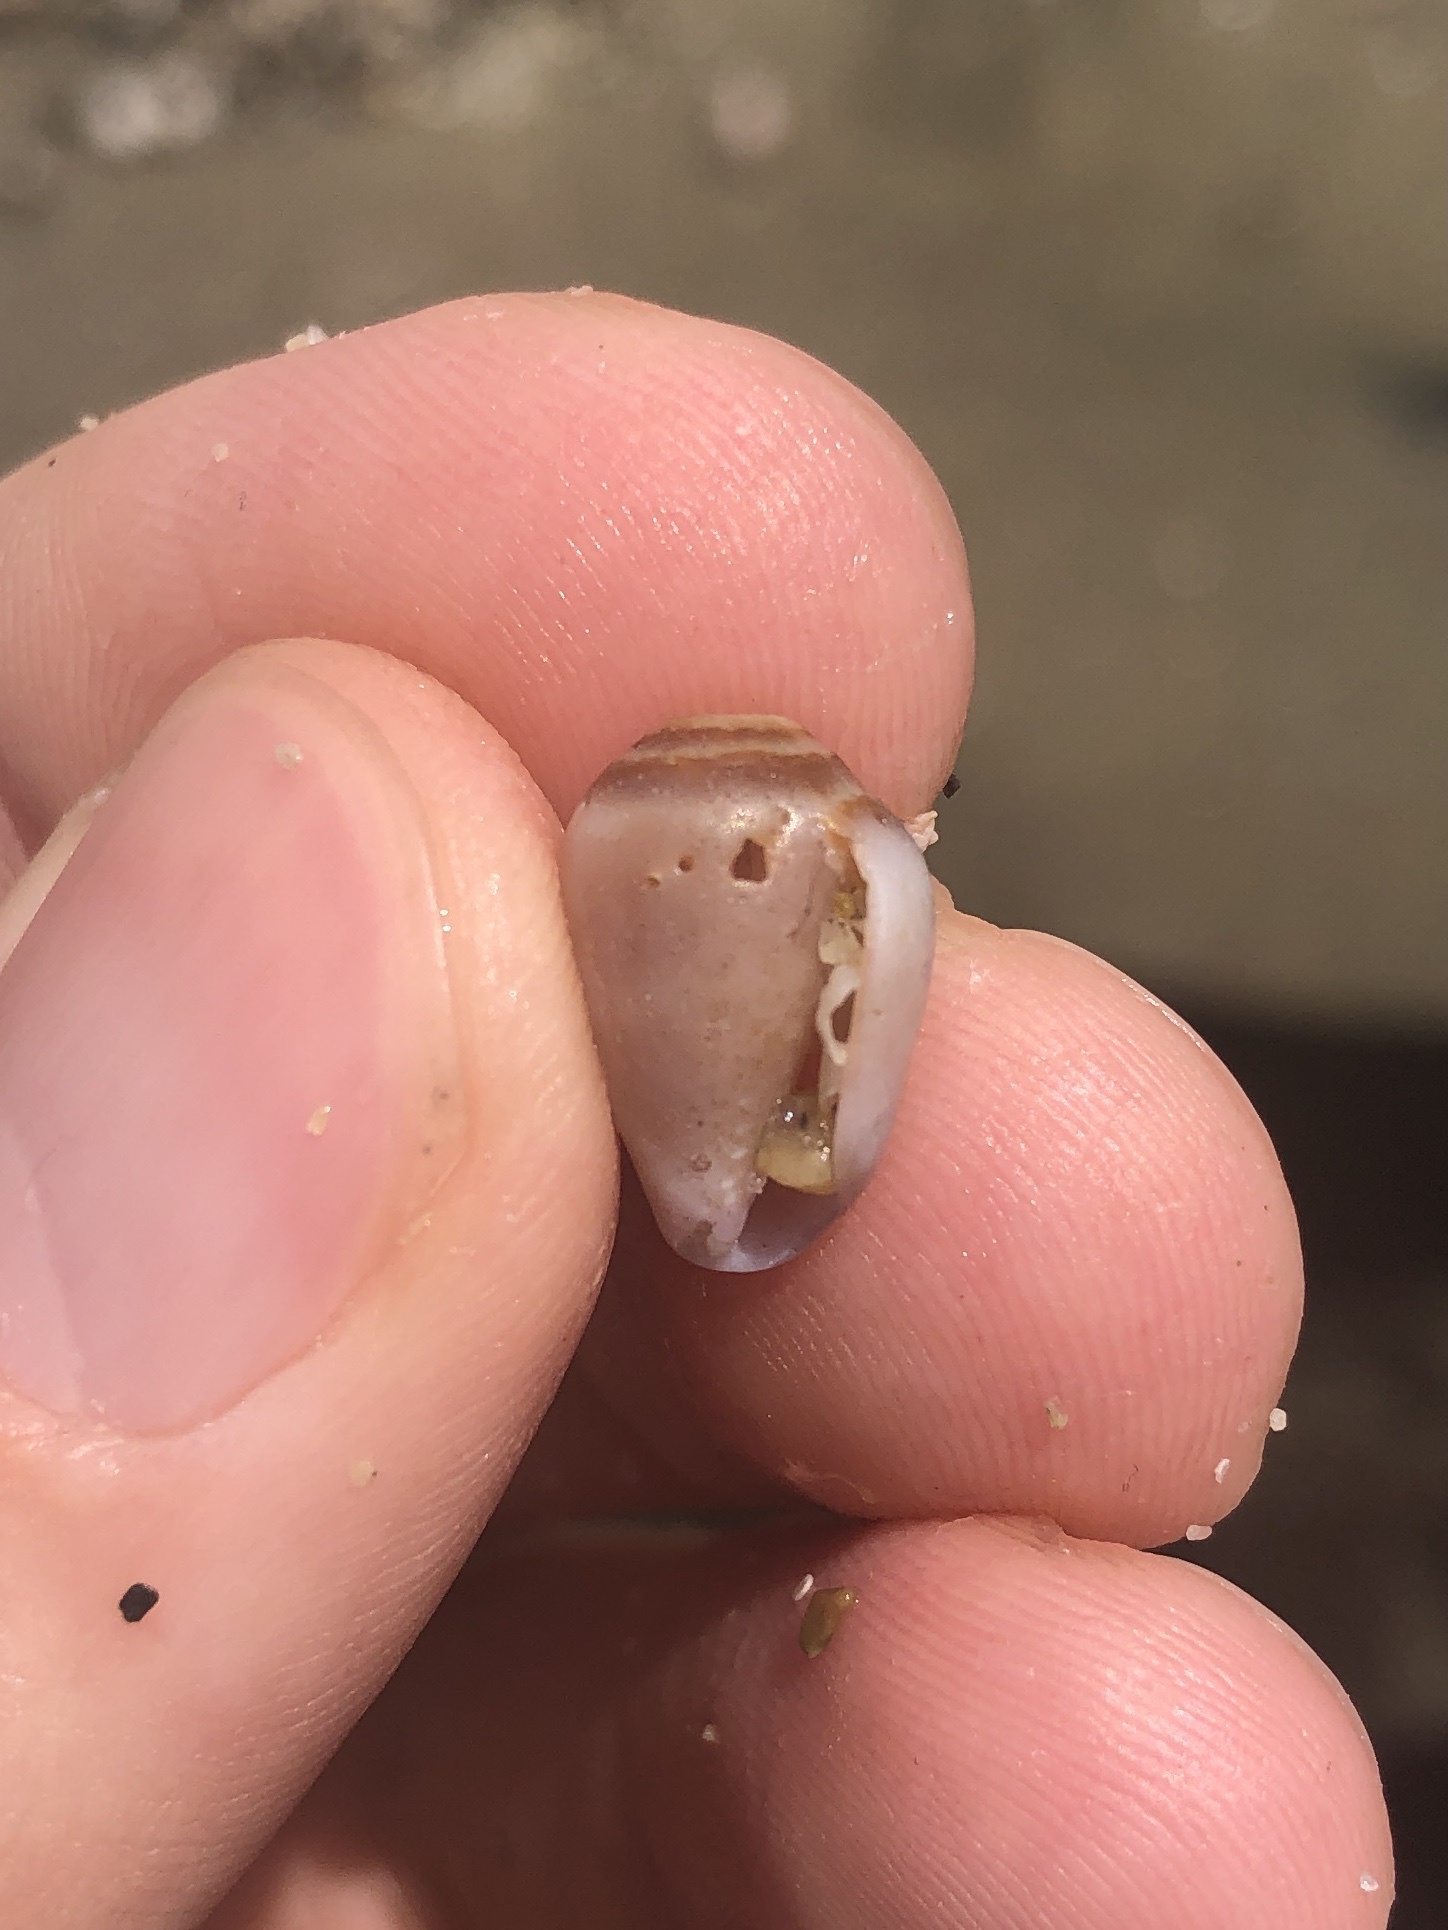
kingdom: Animalia
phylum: Mollusca
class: Gastropoda
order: Neogastropoda
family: Conidae
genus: Californiconus
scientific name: Californiconus californicus
